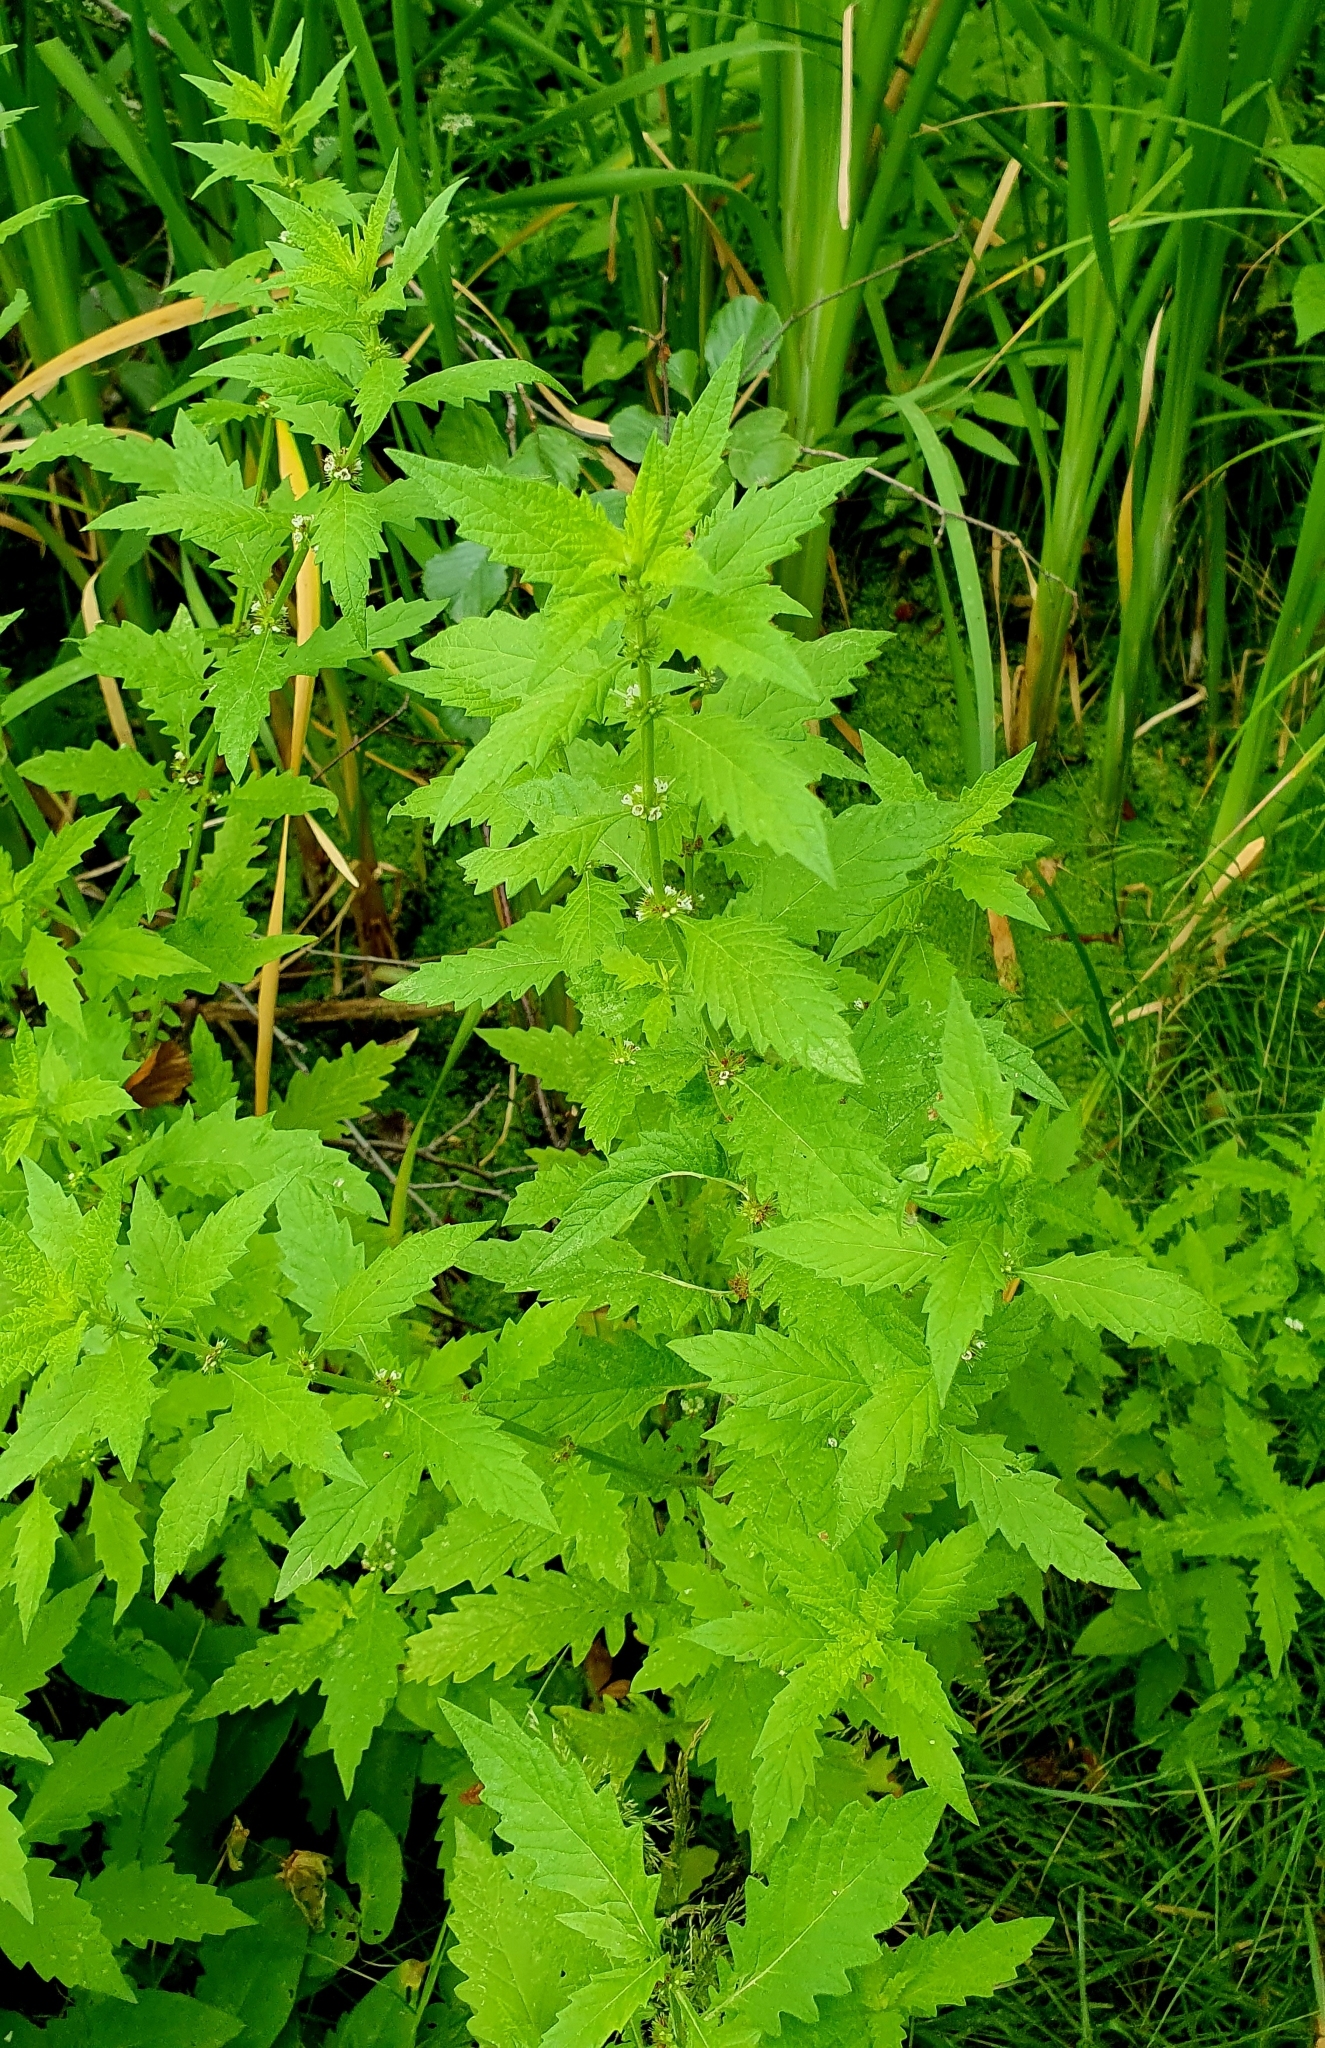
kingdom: Plantae
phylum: Tracheophyta
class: Magnoliopsida
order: Lamiales
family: Lamiaceae
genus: Lycopus
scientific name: Lycopus europaeus
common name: European bugleweed
